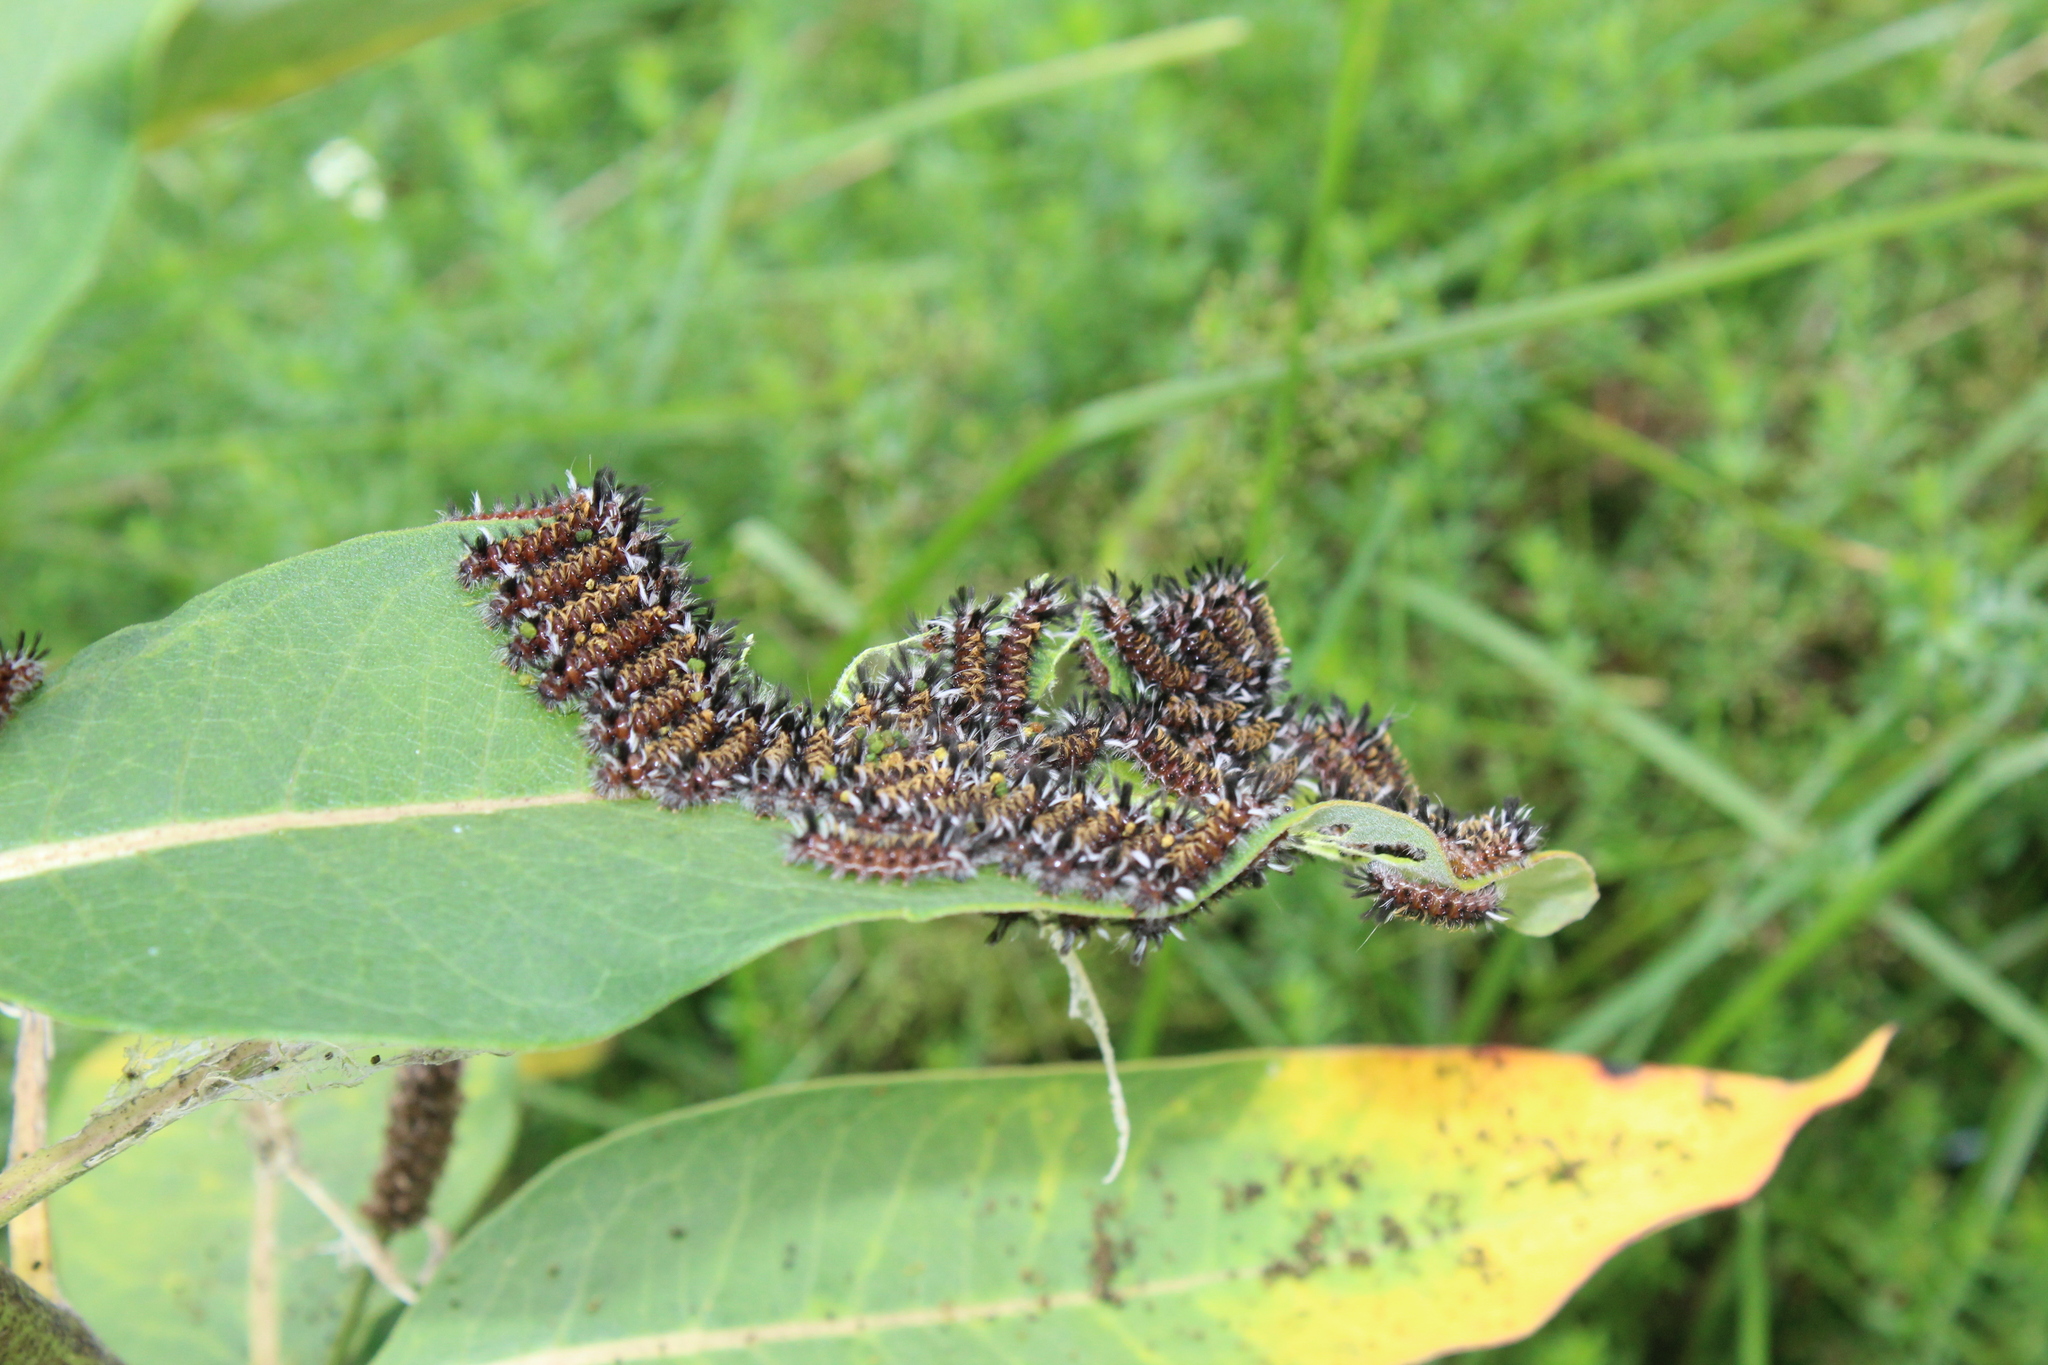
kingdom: Animalia
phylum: Arthropoda
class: Insecta
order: Lepidoptera
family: Erebidae
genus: Euchaetes
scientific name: Euchaetes egle
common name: Milkweed tussock moth
